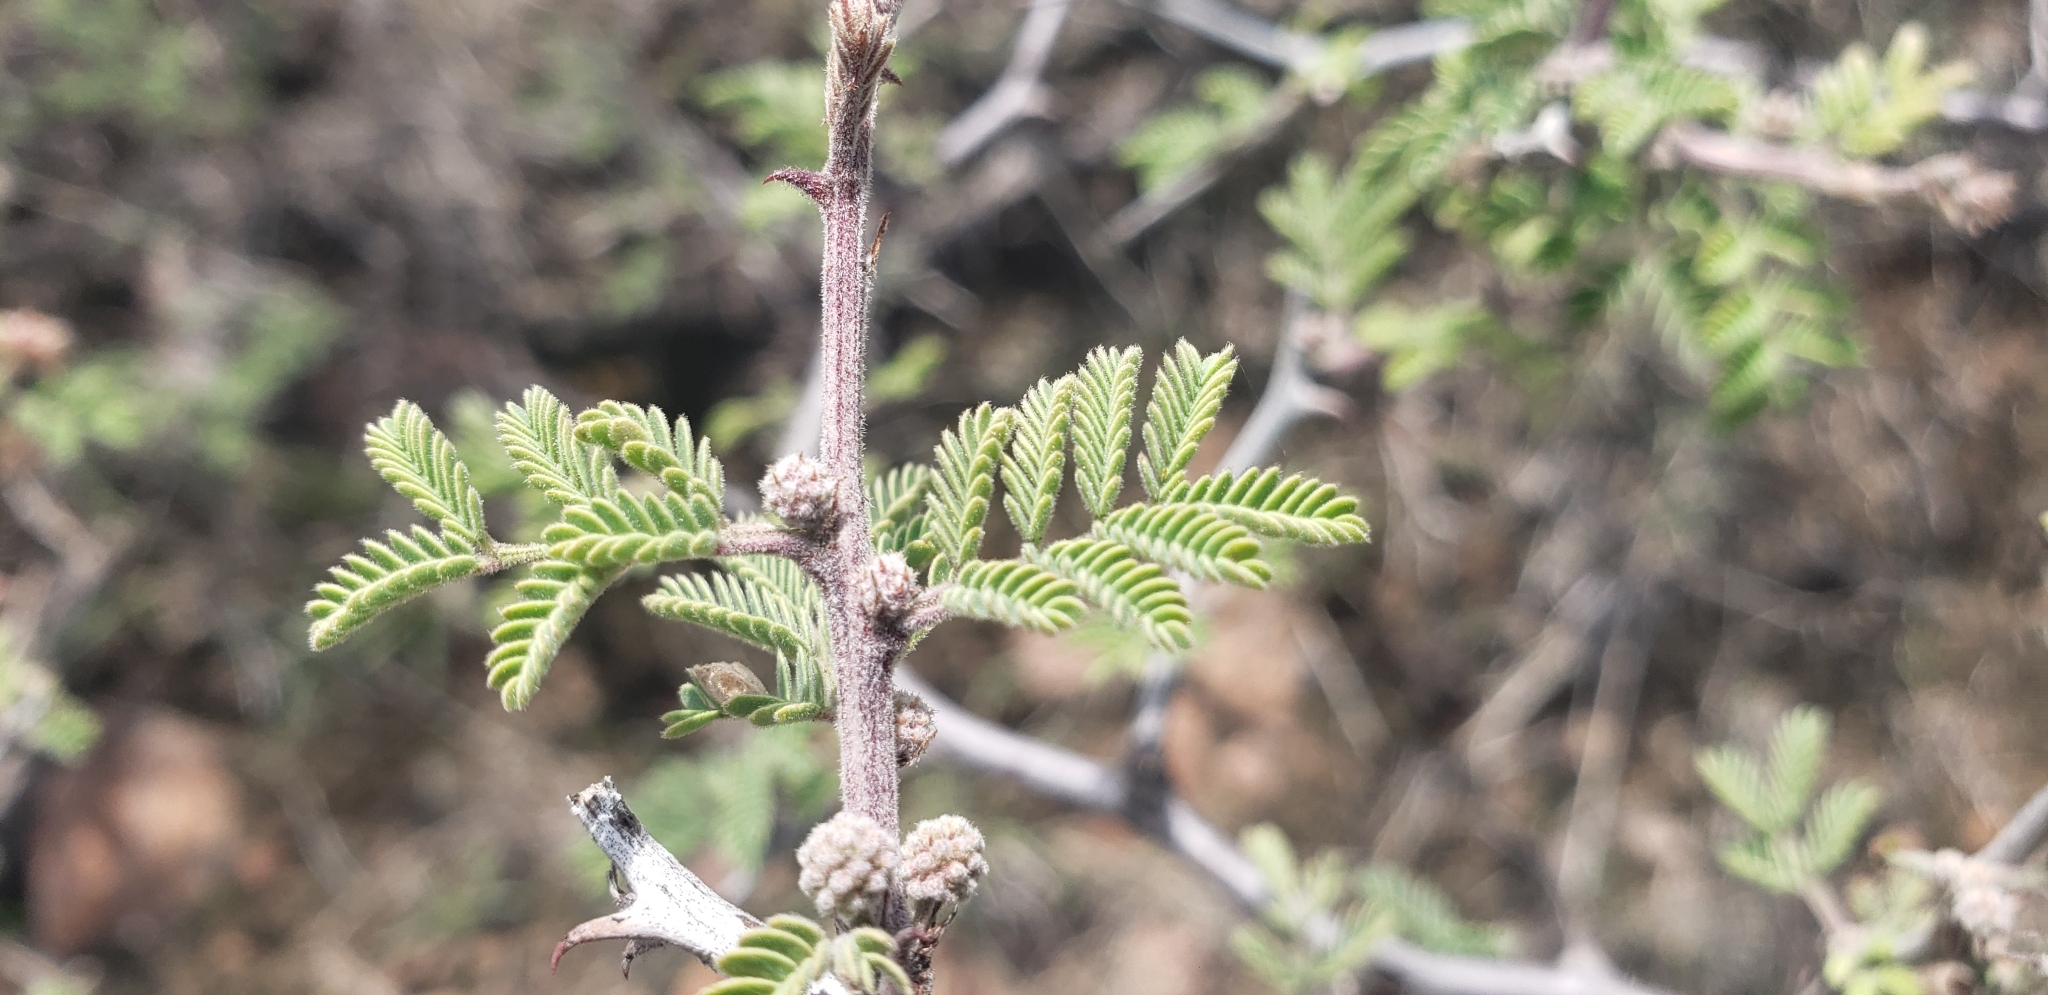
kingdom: Plantae
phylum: Tracheophyta
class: Magnoliopsida
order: Fabales
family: Fabaceae
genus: Mimosa
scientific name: Mimosa aculeaticarpa
